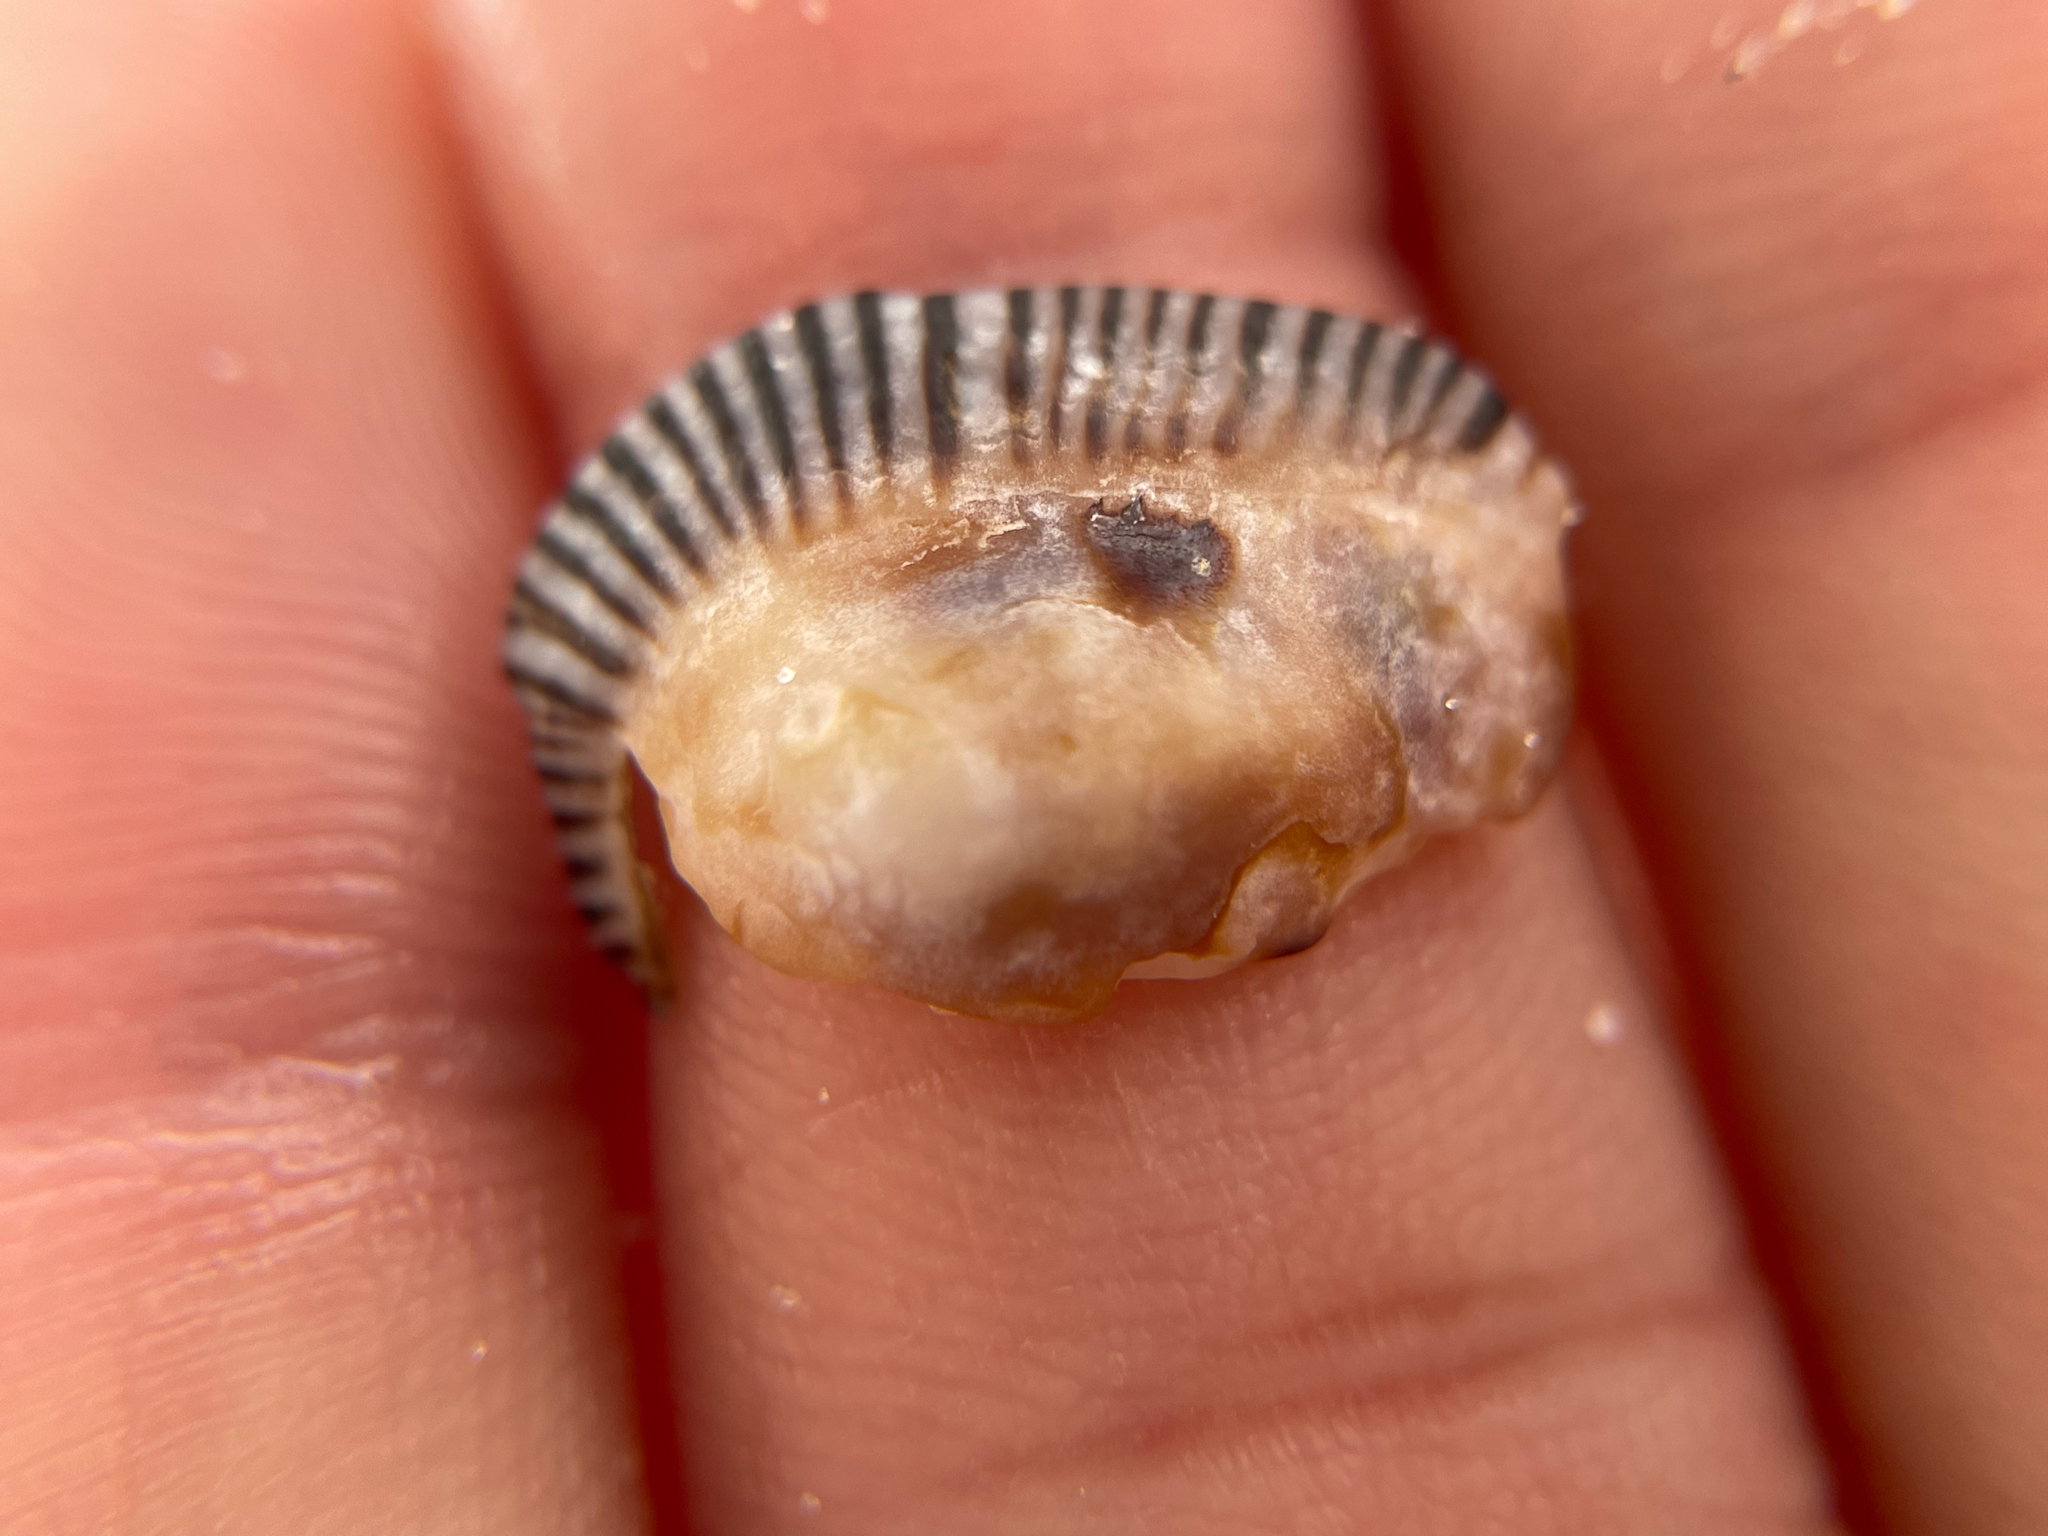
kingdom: Animalia
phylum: Mollusca
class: Gastropoda
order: Siphonariida
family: Siphonariidae
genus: Siphonaria
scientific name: Siphonaria naufragum
